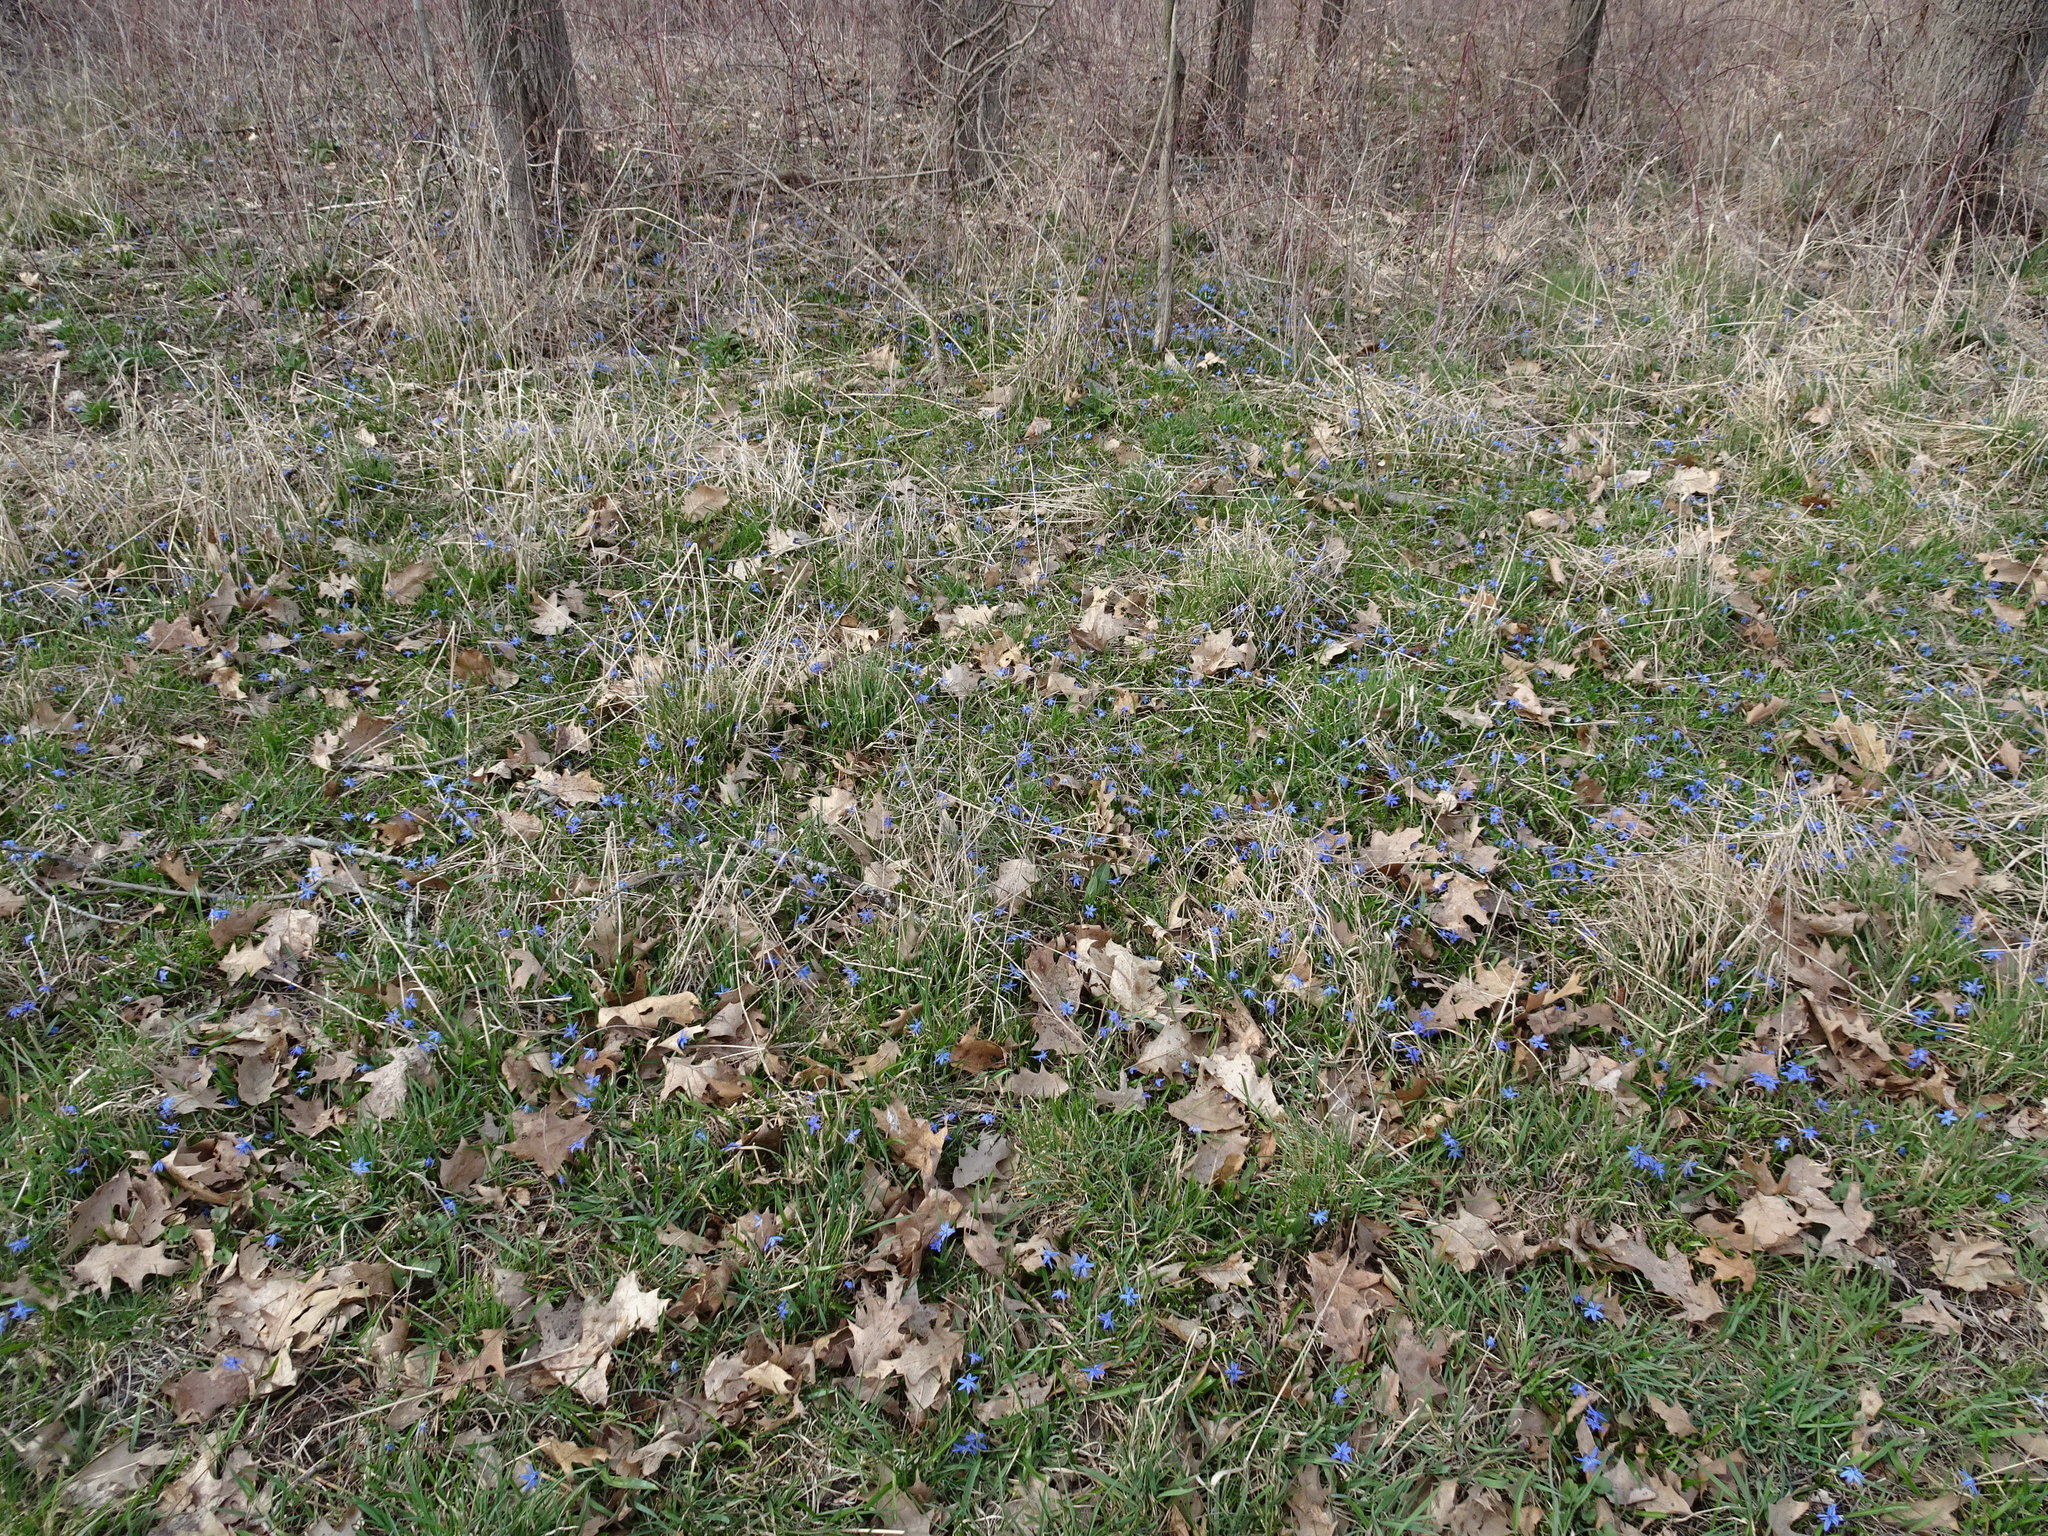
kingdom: Plantae
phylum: Tracheophyta
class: Liliopsida
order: Asparagales
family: Asparagaceae
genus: Scilla
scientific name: Scilla siberica
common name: Siberian squill
